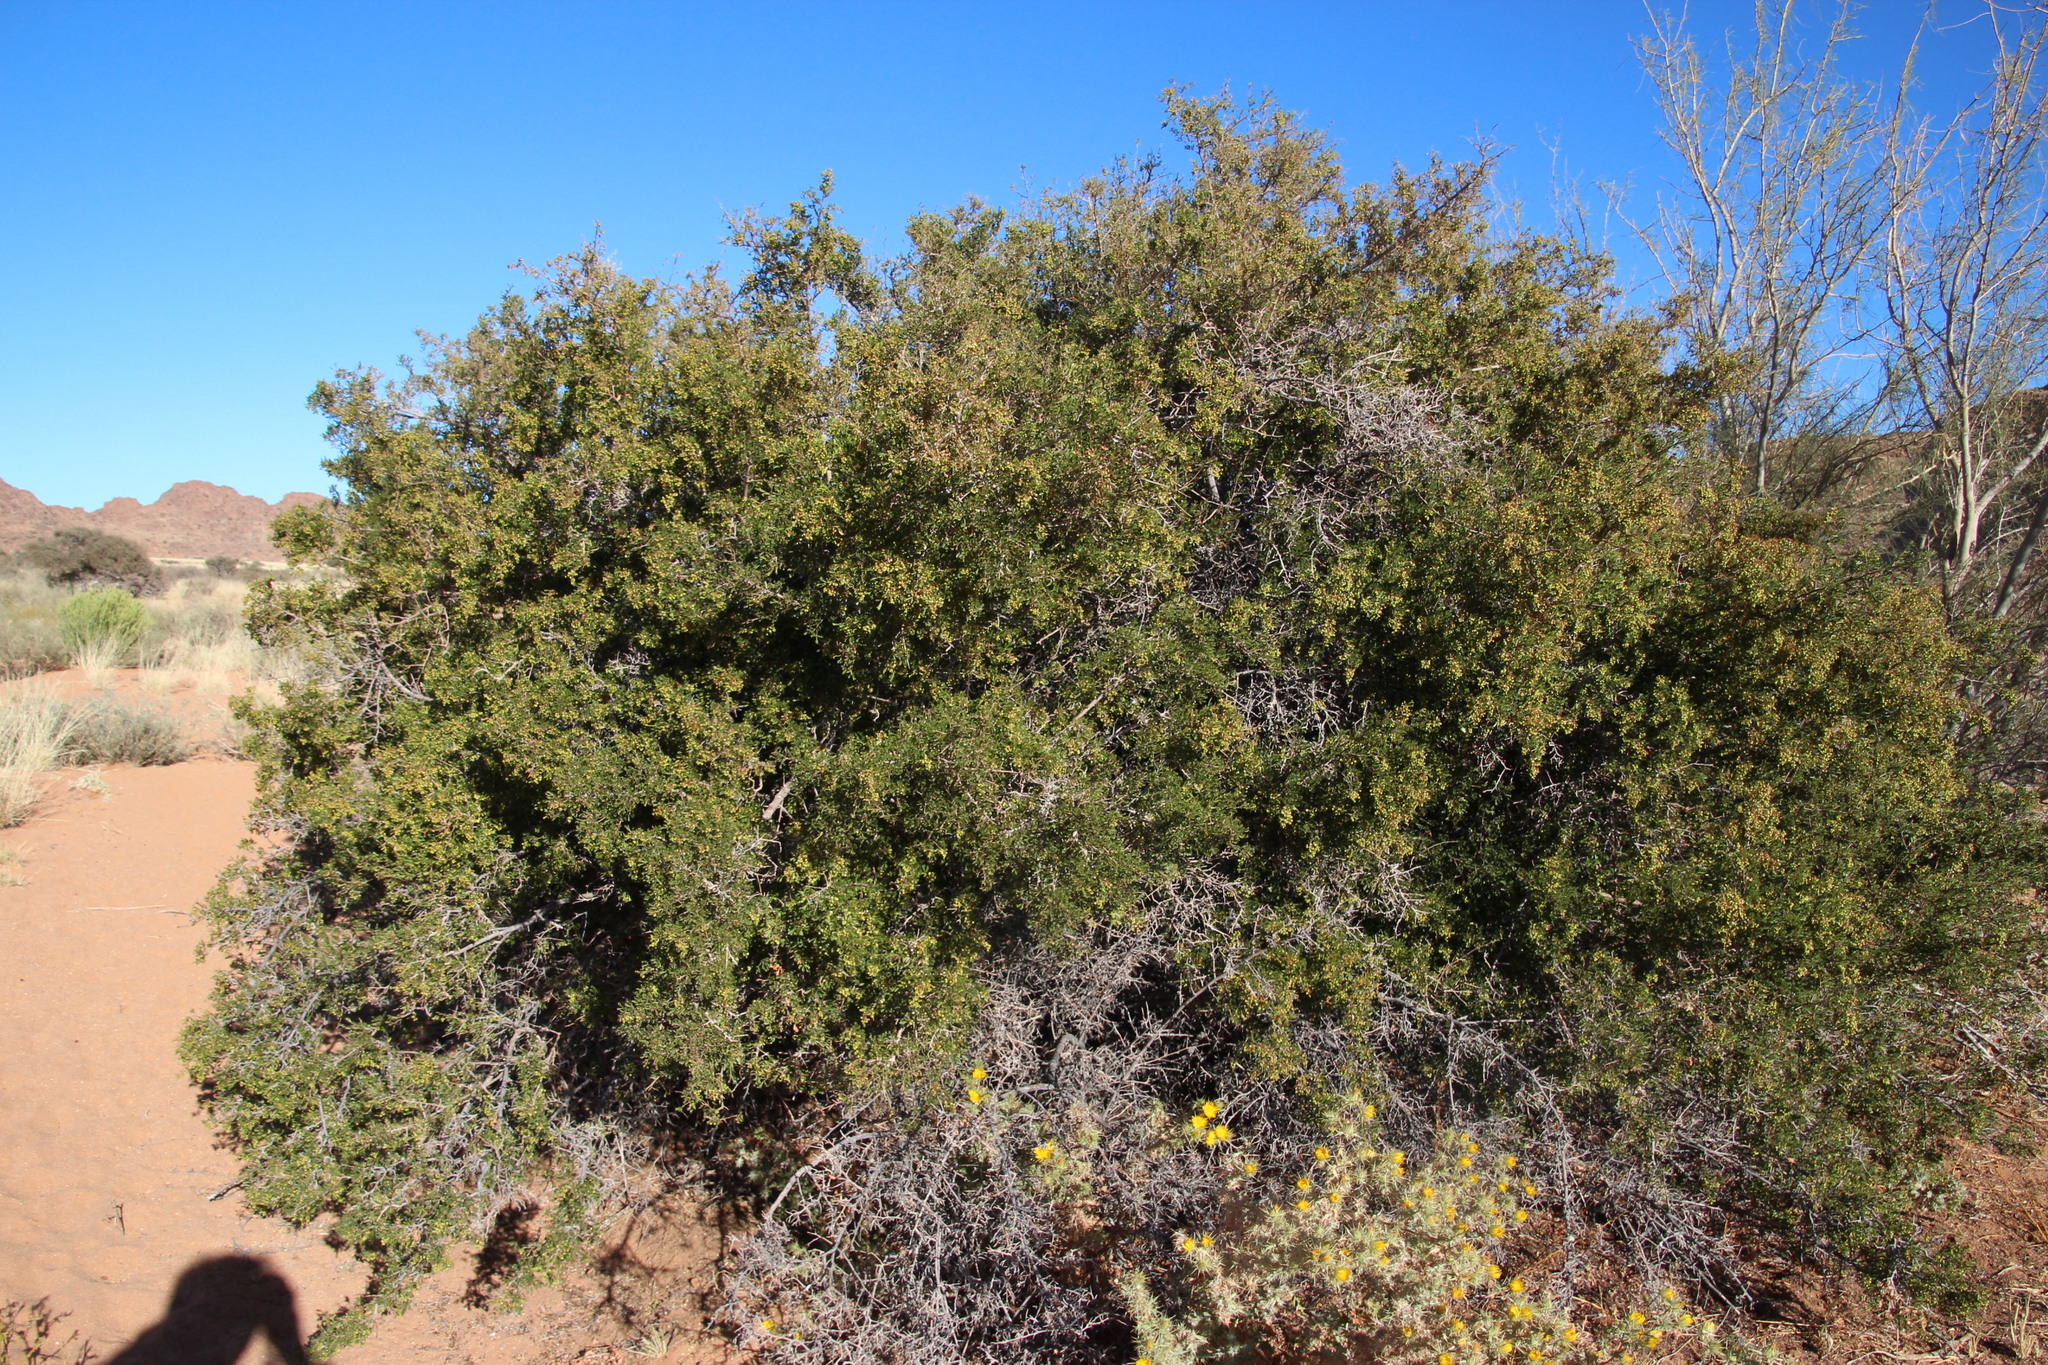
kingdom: Plantae
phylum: Tracheophyta
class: Magnoliopsida
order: Sapindales
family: Anacardiaceae
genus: Searsia
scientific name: Searsia burchellii
